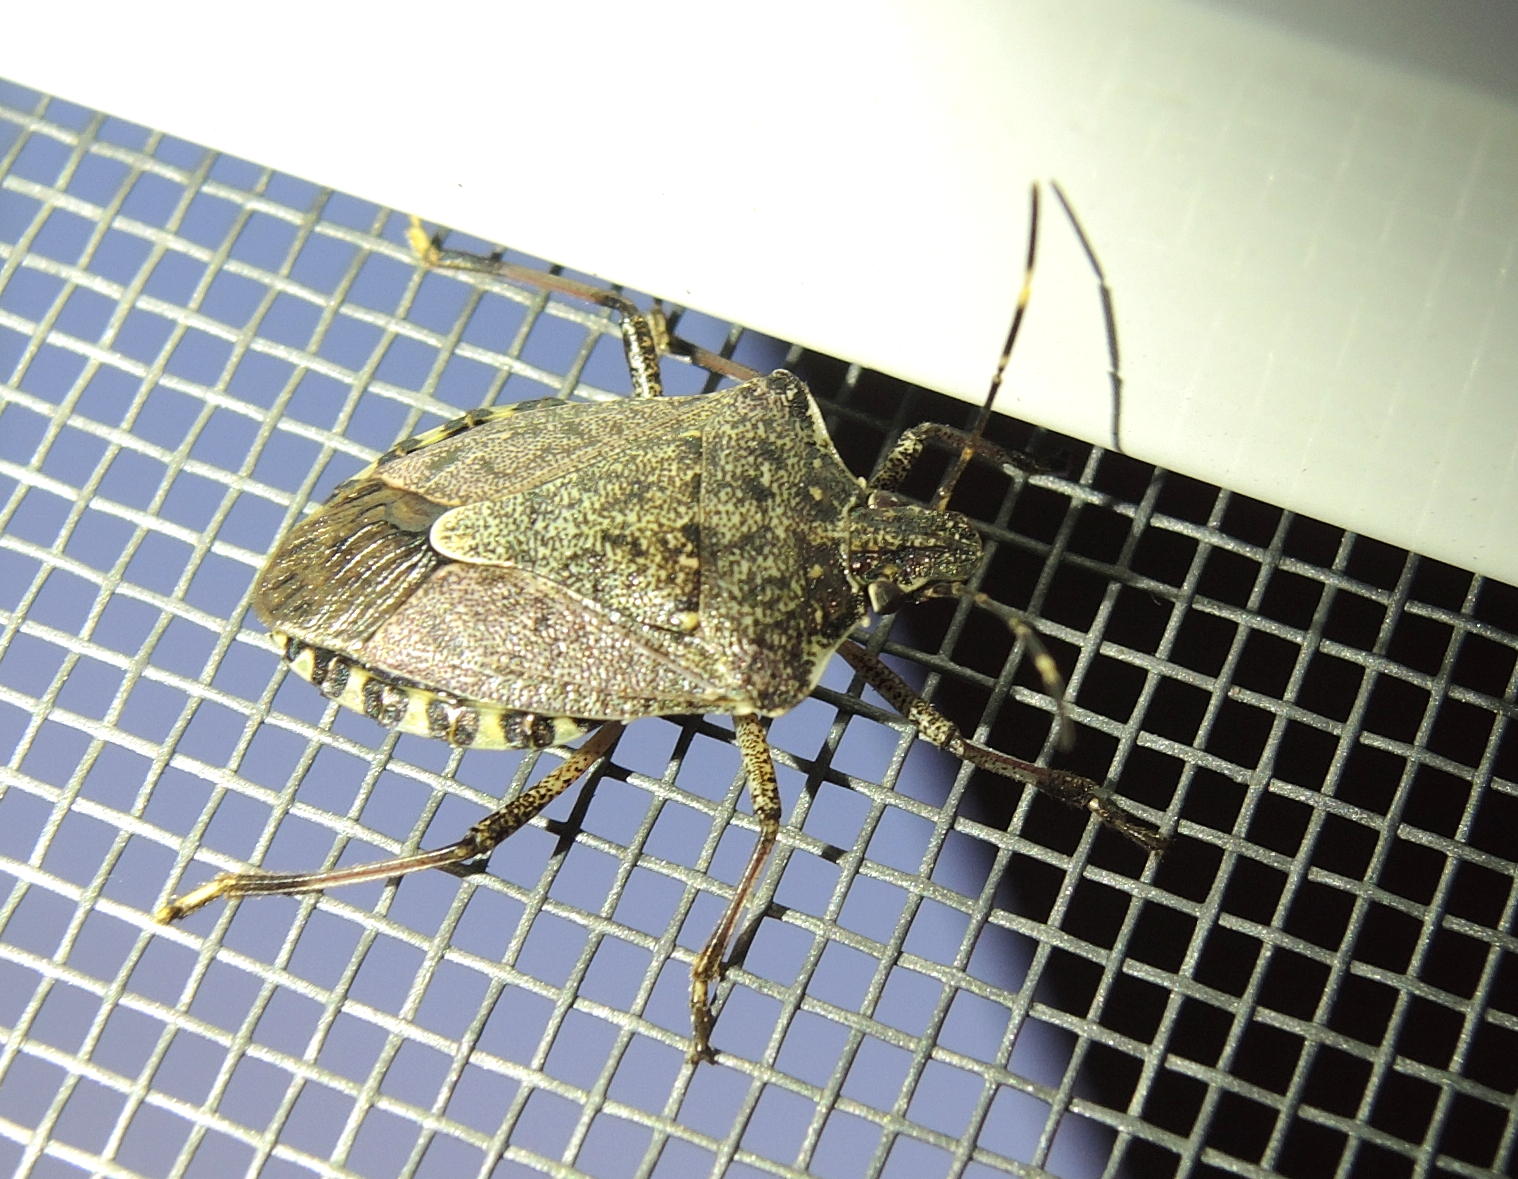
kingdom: Animalia
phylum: Arthropoda
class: Insecta
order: Hemiptera
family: Pentatomidae
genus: Halyomorpha
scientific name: Halyomorpha halys
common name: Brown marmorated stink bug
